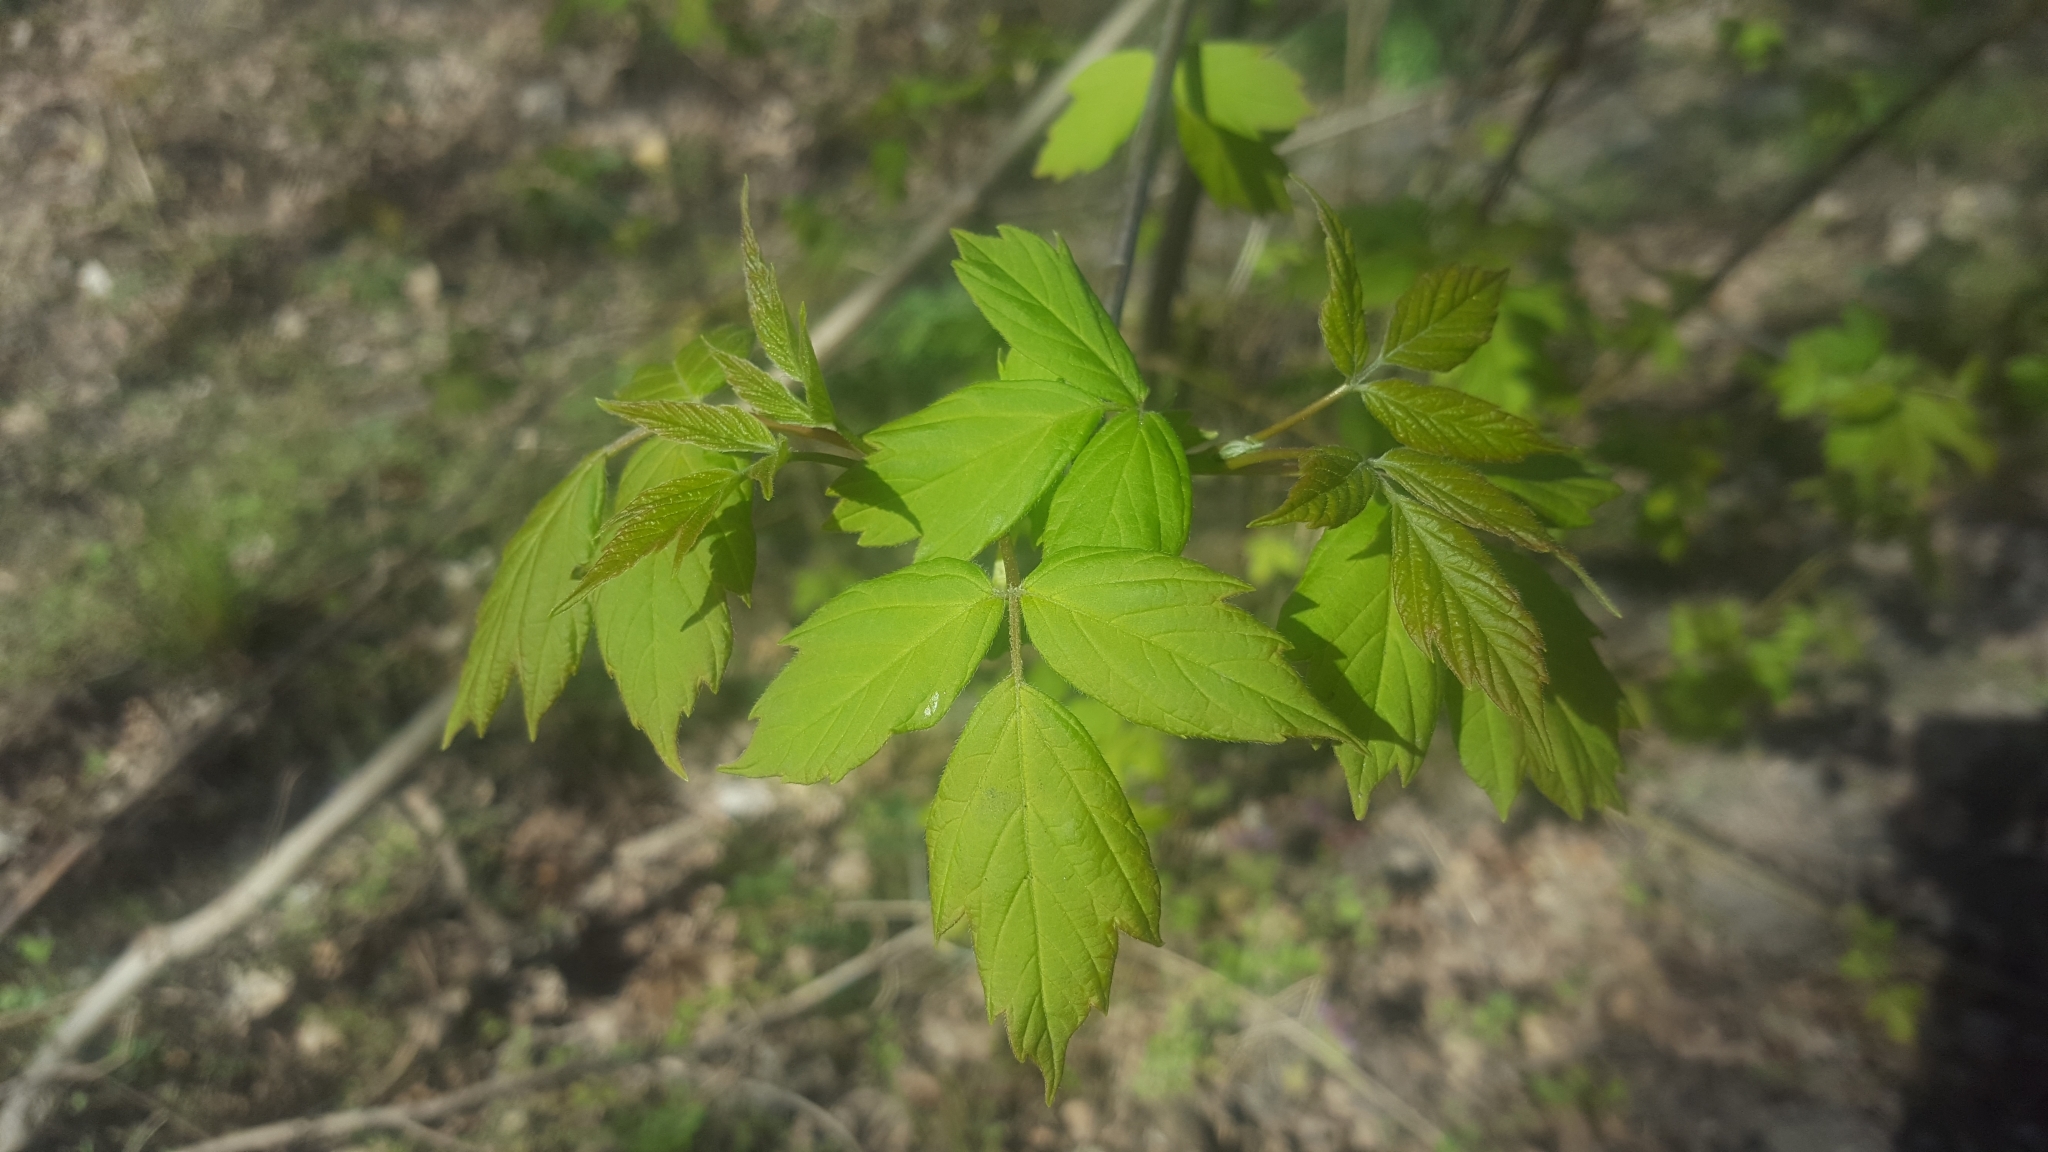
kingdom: Plantae
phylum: Tracheophyta
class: Magnoliopsida
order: Sapindales
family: Sapindaceae
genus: Acer
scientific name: Acer negundo
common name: Ashleaf maple
